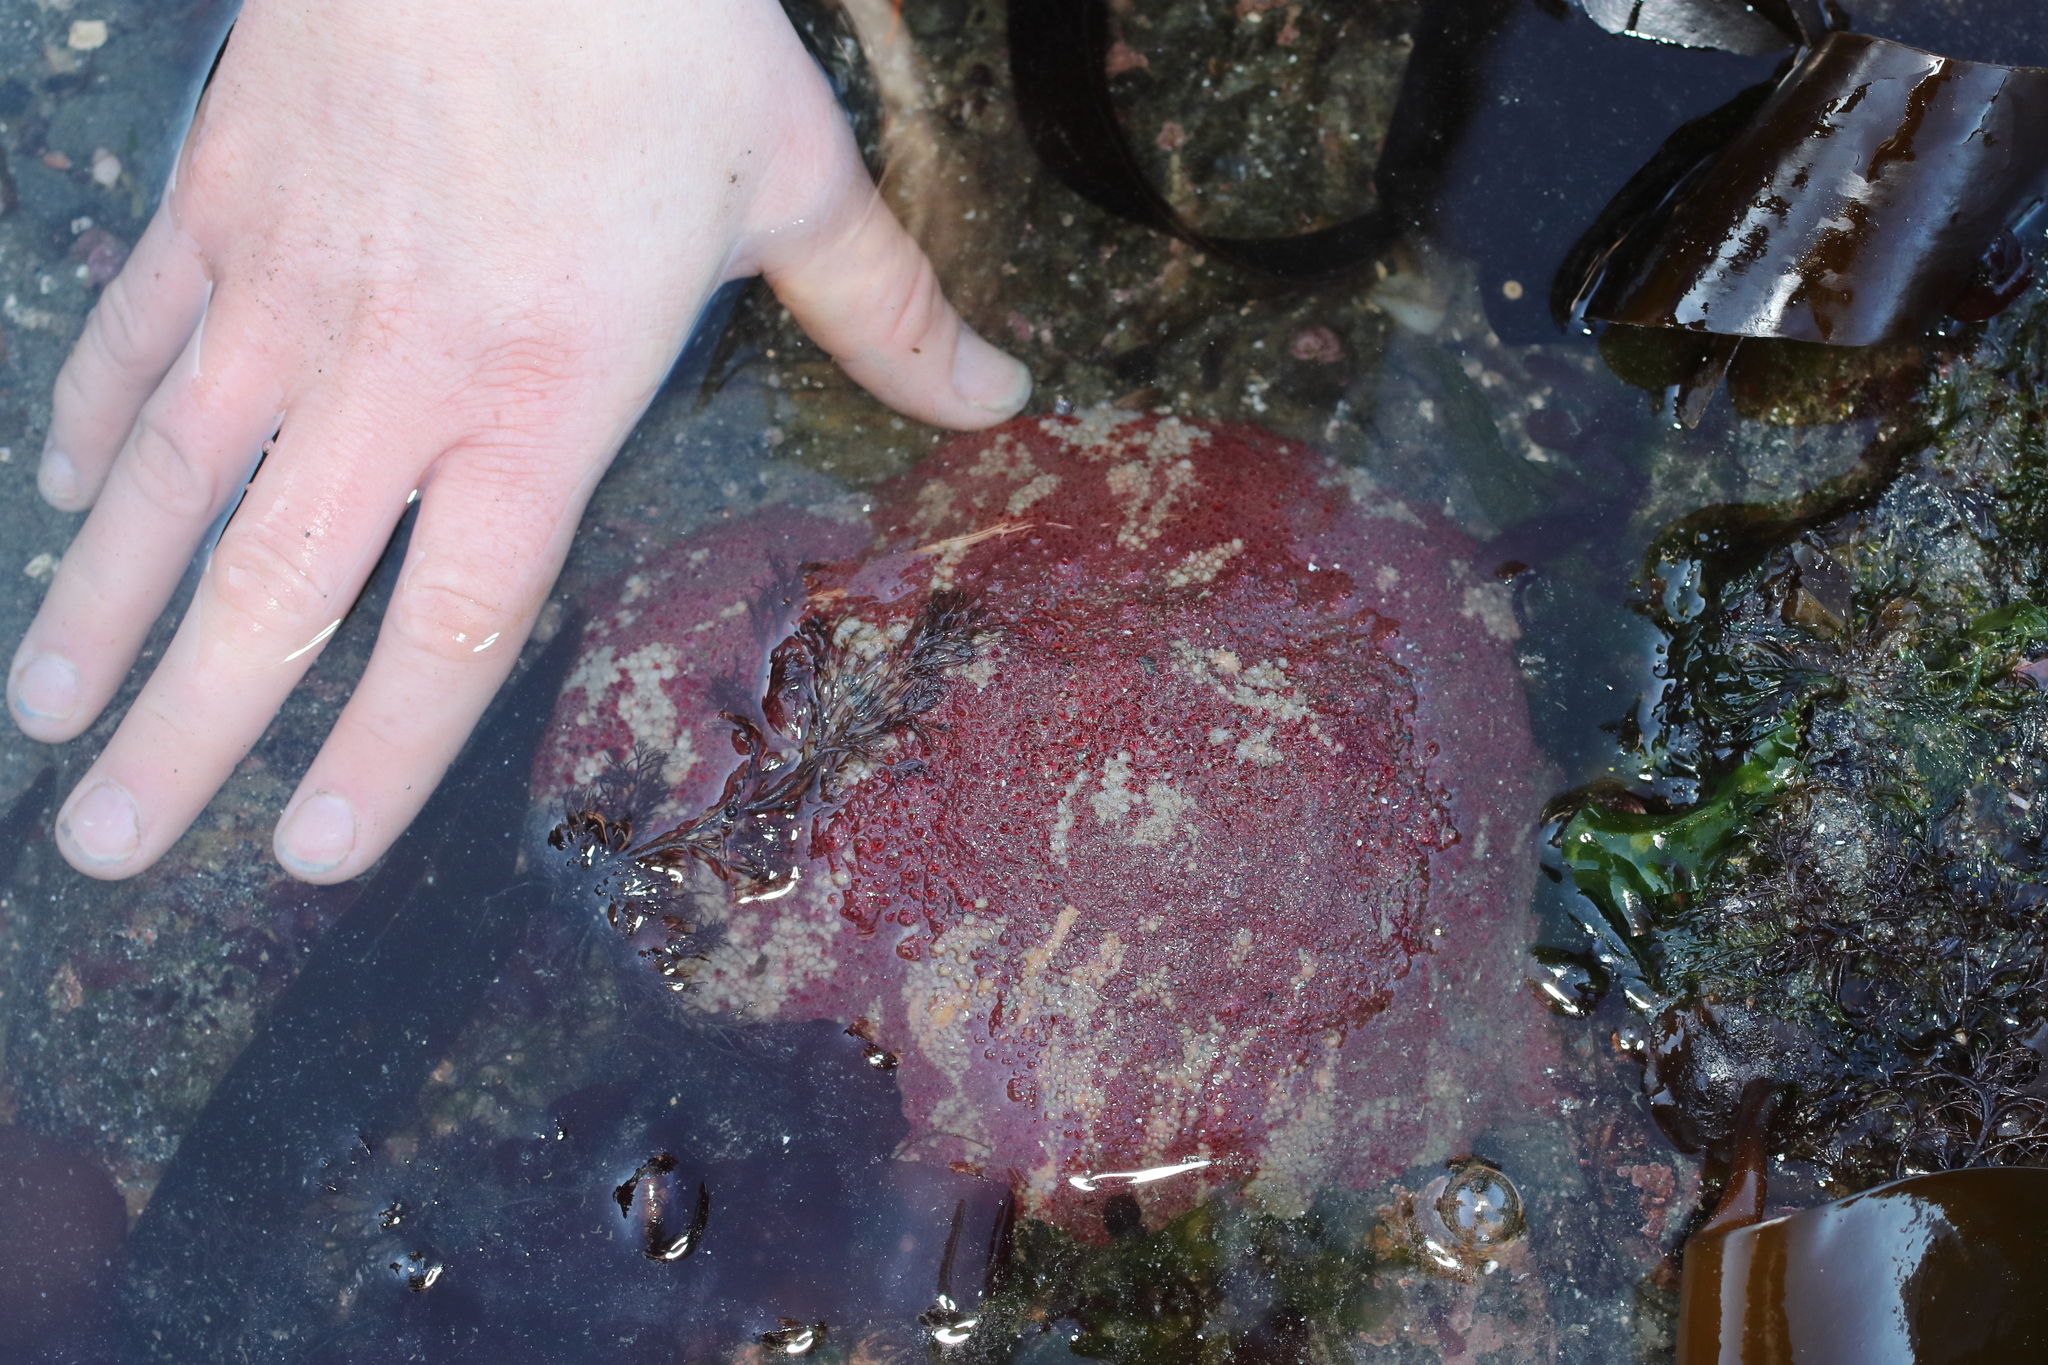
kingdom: Animalia
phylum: Mollusca
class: Polyplacophora
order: Chitonida
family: Acanthochitonidae
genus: Cryptochiton
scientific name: Cryptochiton stelleri
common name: Giant pacific chiton
